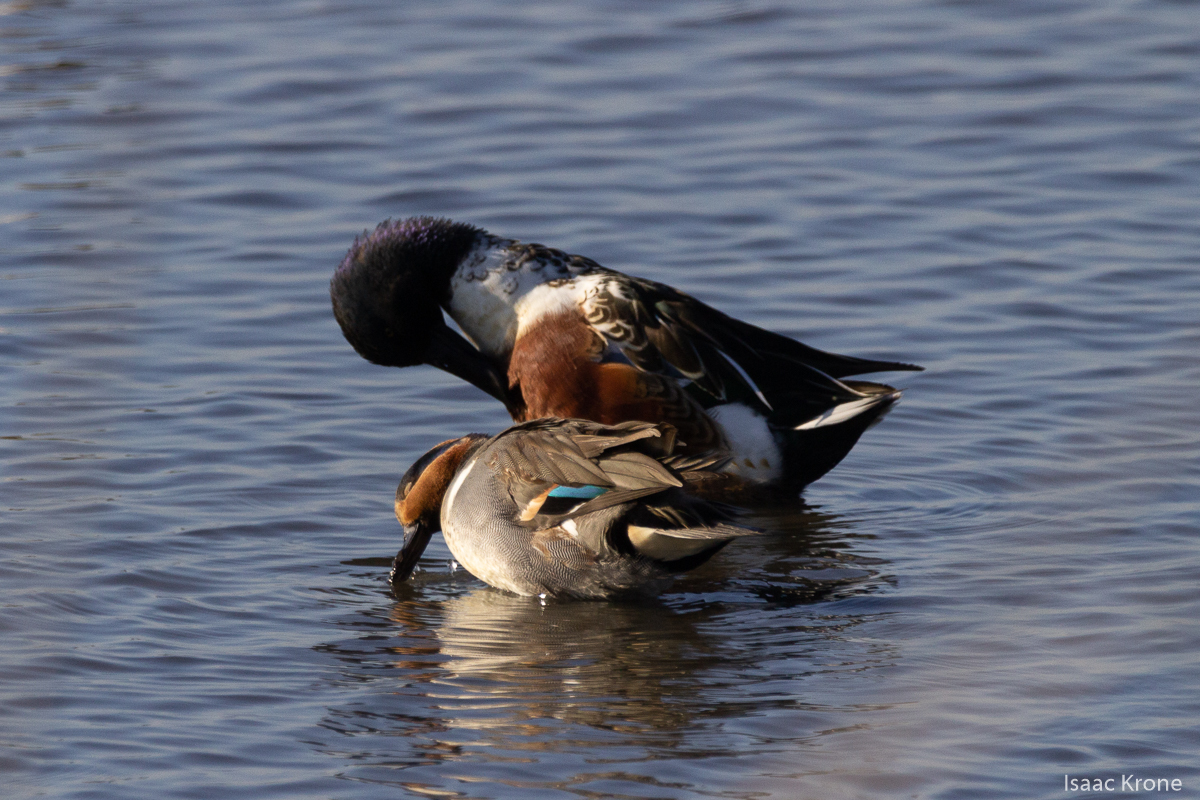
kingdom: Animalia
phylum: Chordata
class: Aves
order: Anseriformes
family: Anatidae
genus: Anas
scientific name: Anas crecca
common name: Eurasian teal
